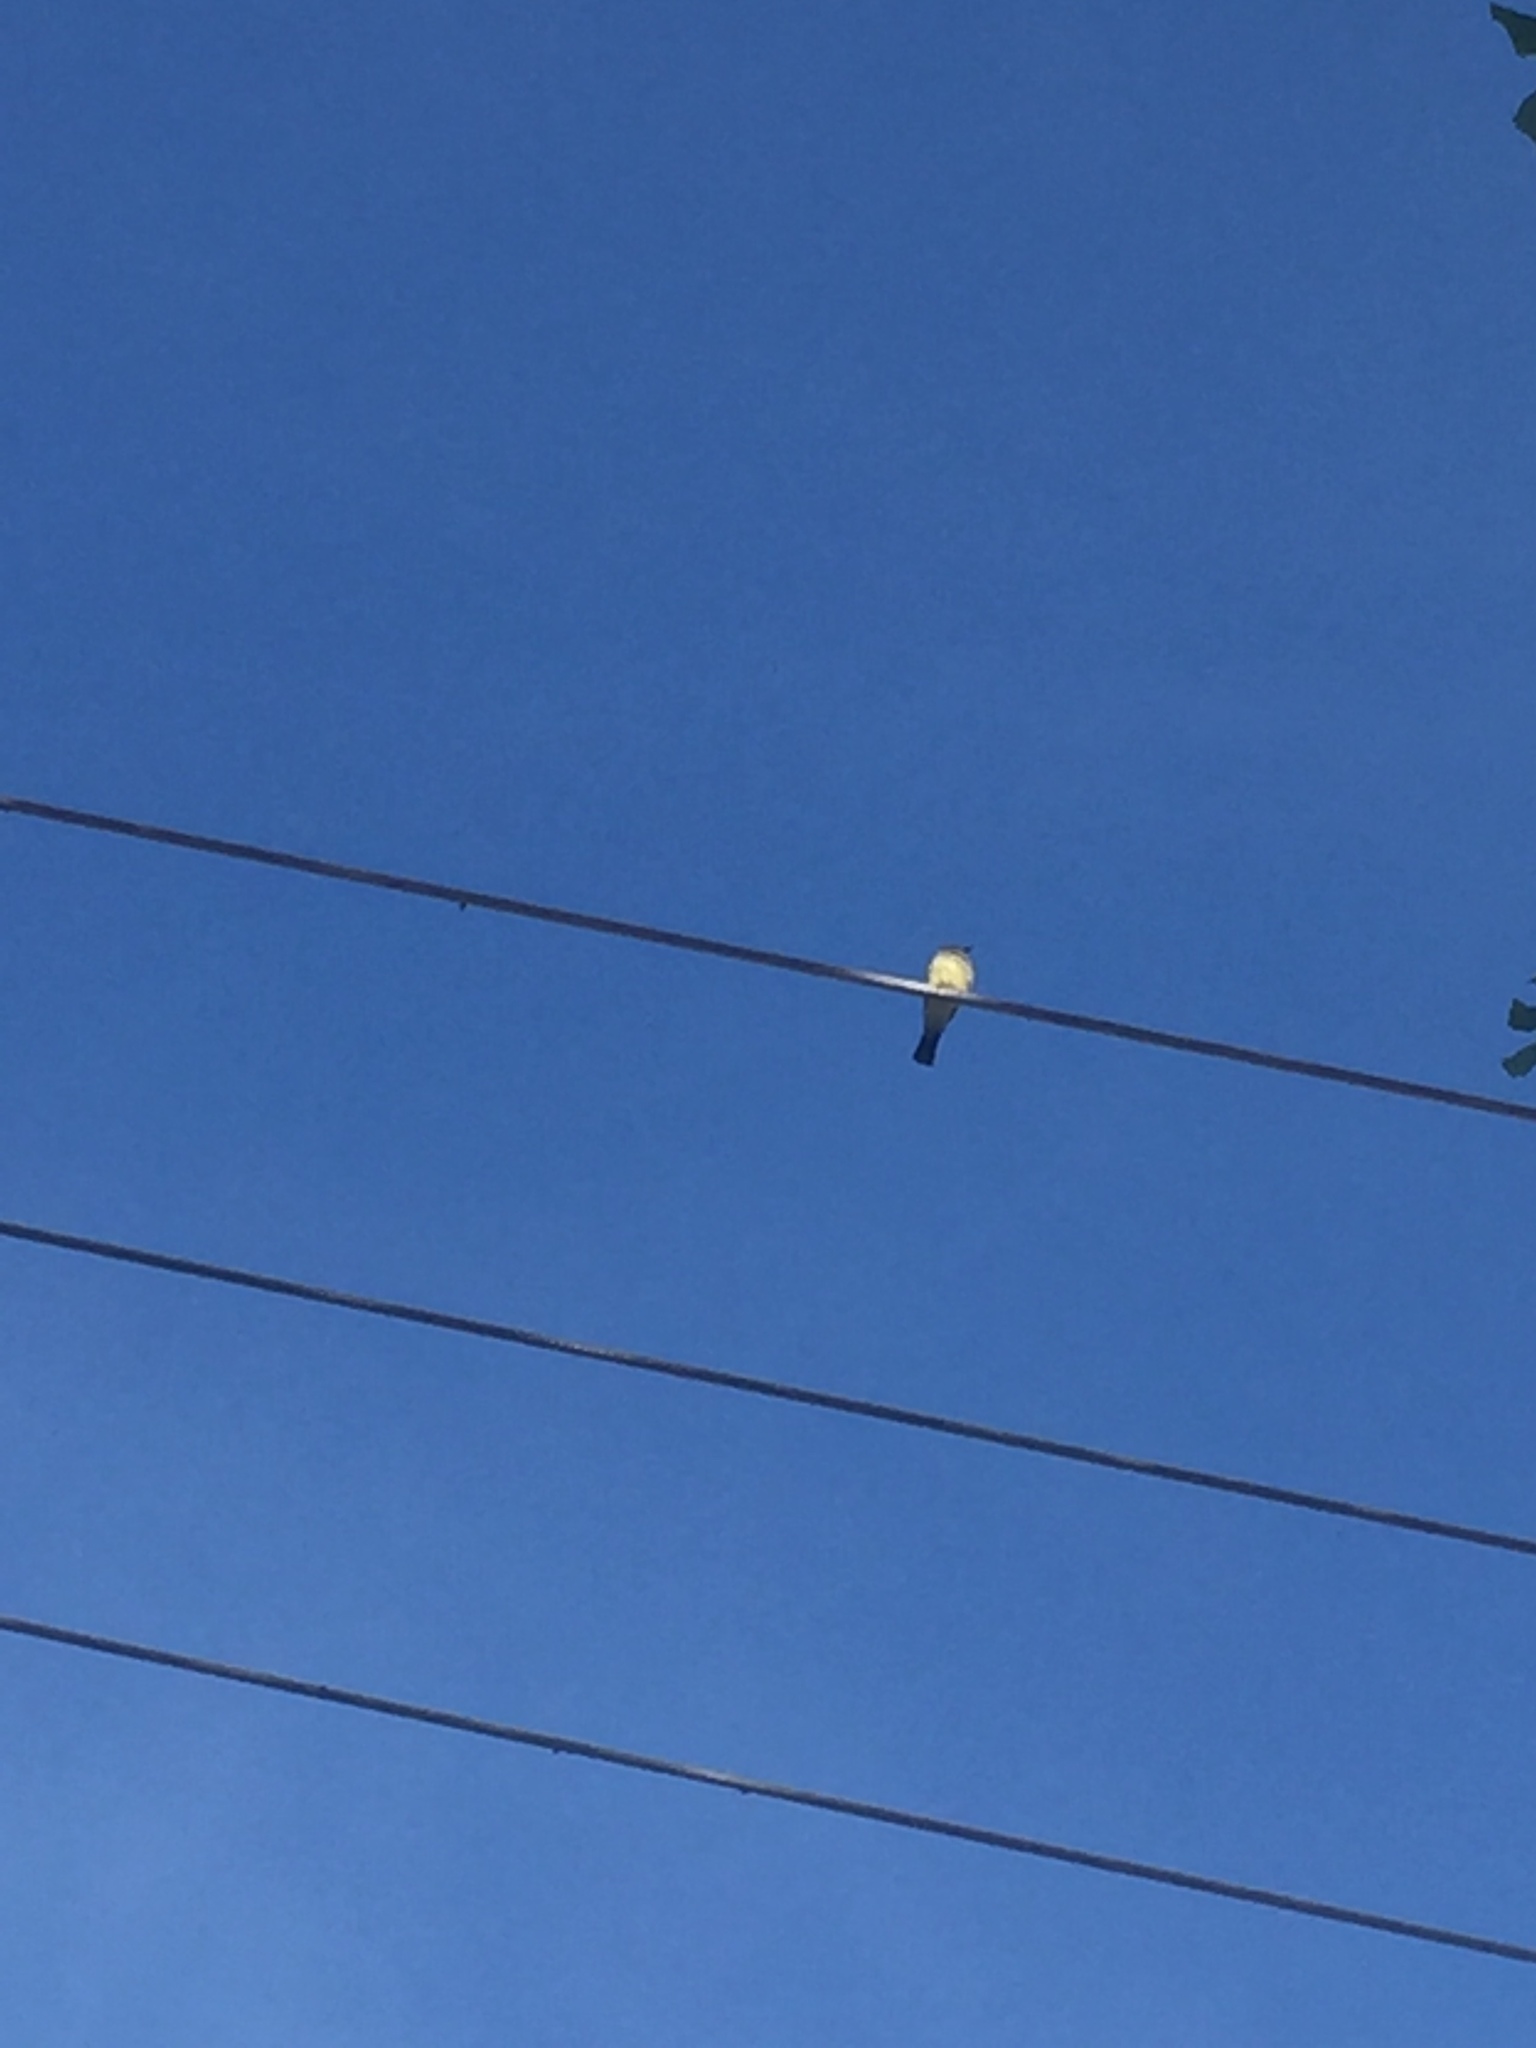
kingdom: Animalia
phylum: Chordata
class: Aves
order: Passeriformes
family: Tyrannidae
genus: Tyrannus
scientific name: Tyrannus vociferans
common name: Cassin's kingbird
